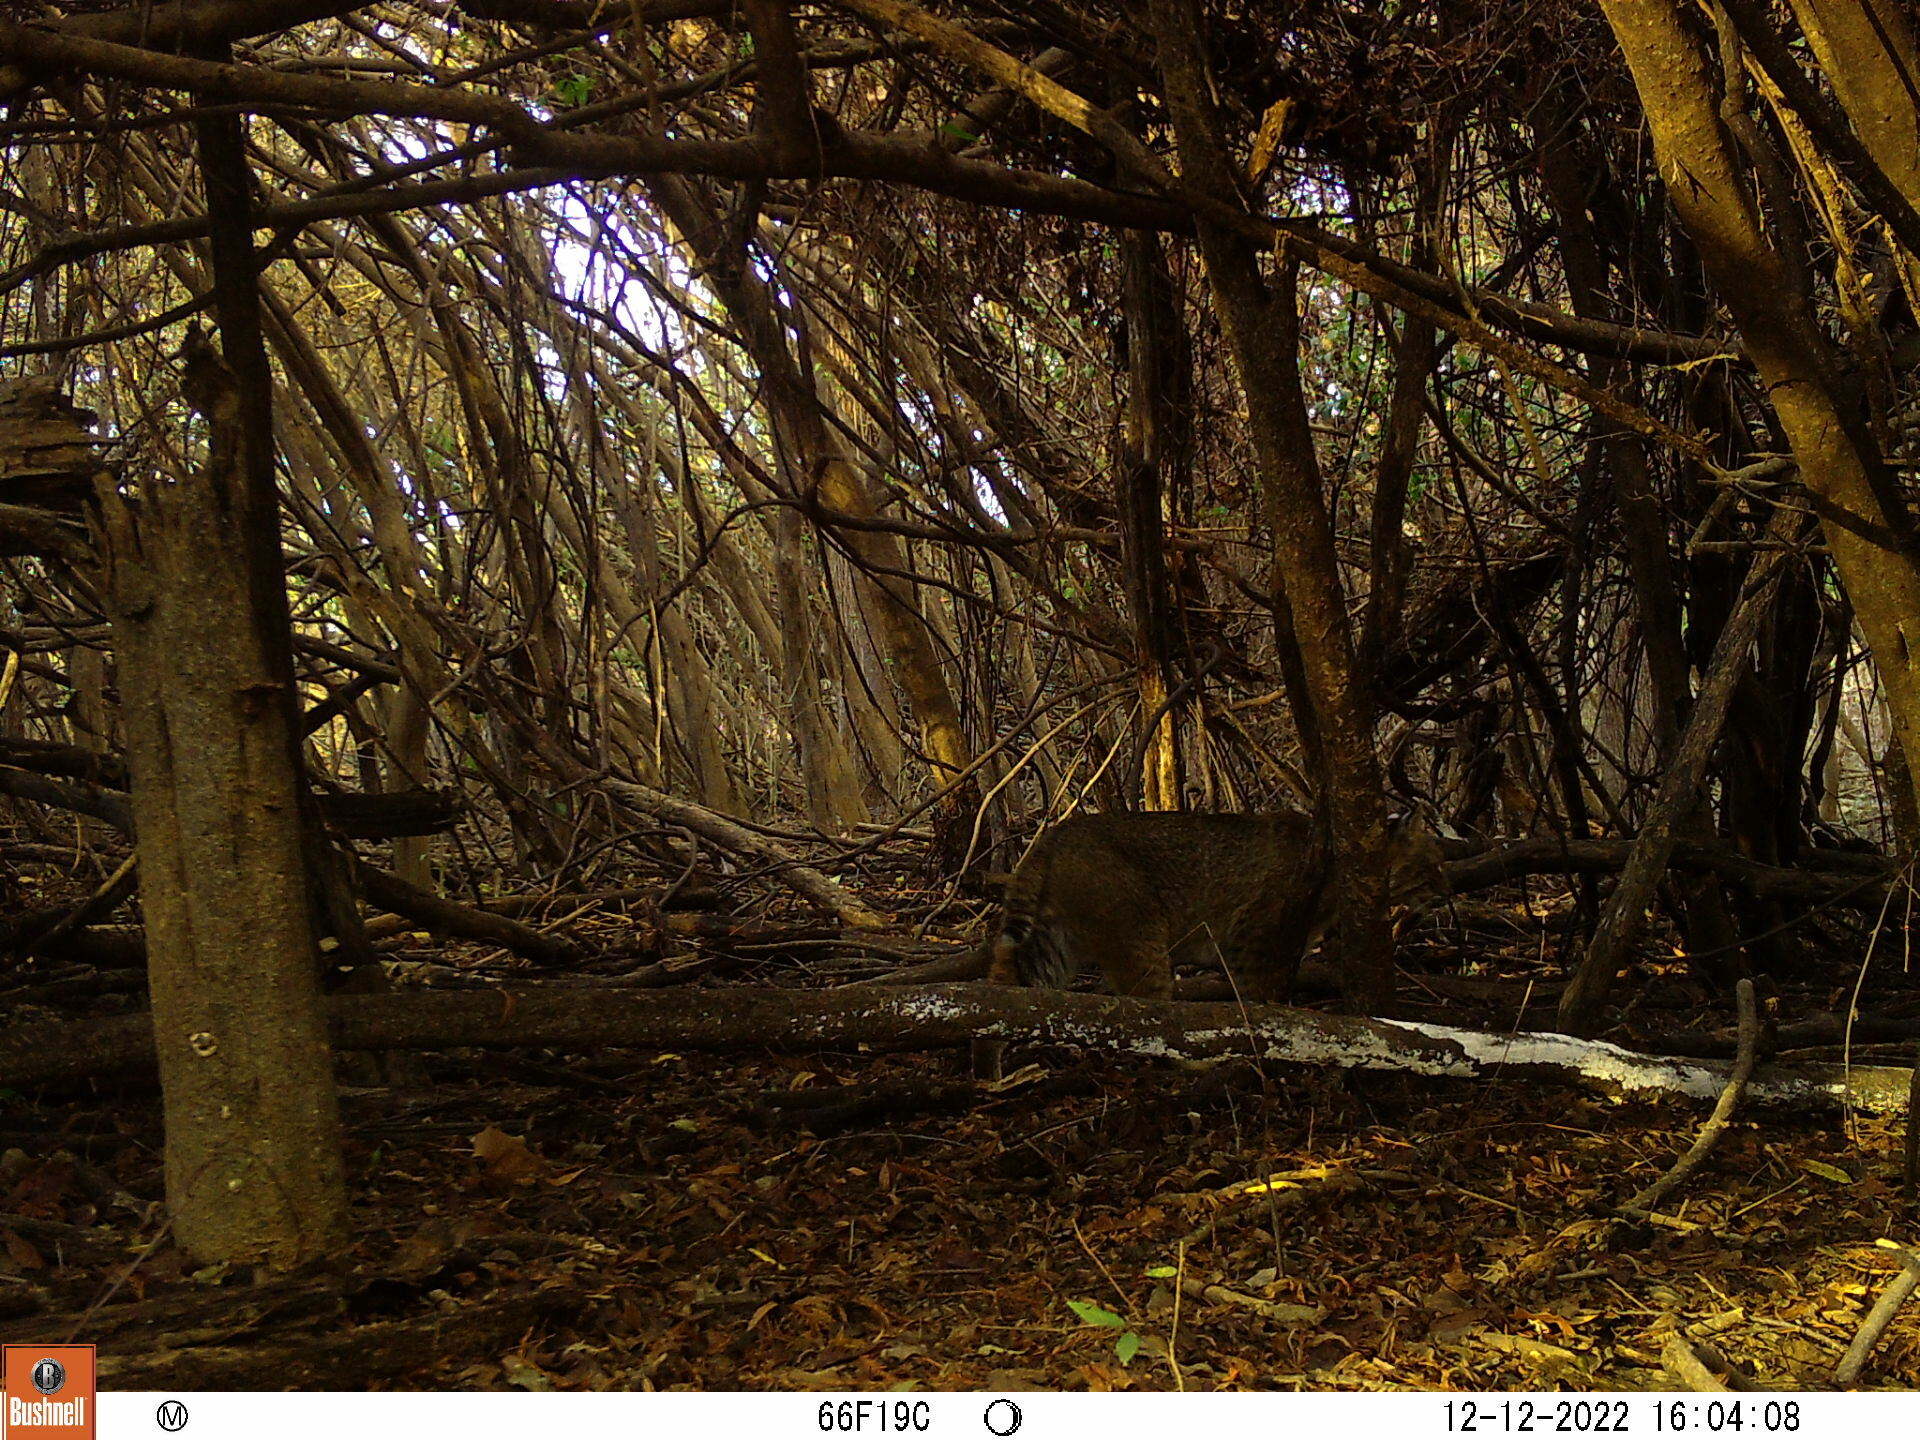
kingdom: Animalia
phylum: Chordata
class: Mammalia
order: Carnivora
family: Felidae
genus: Lynx
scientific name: Lynx rufus
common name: Bobcat
